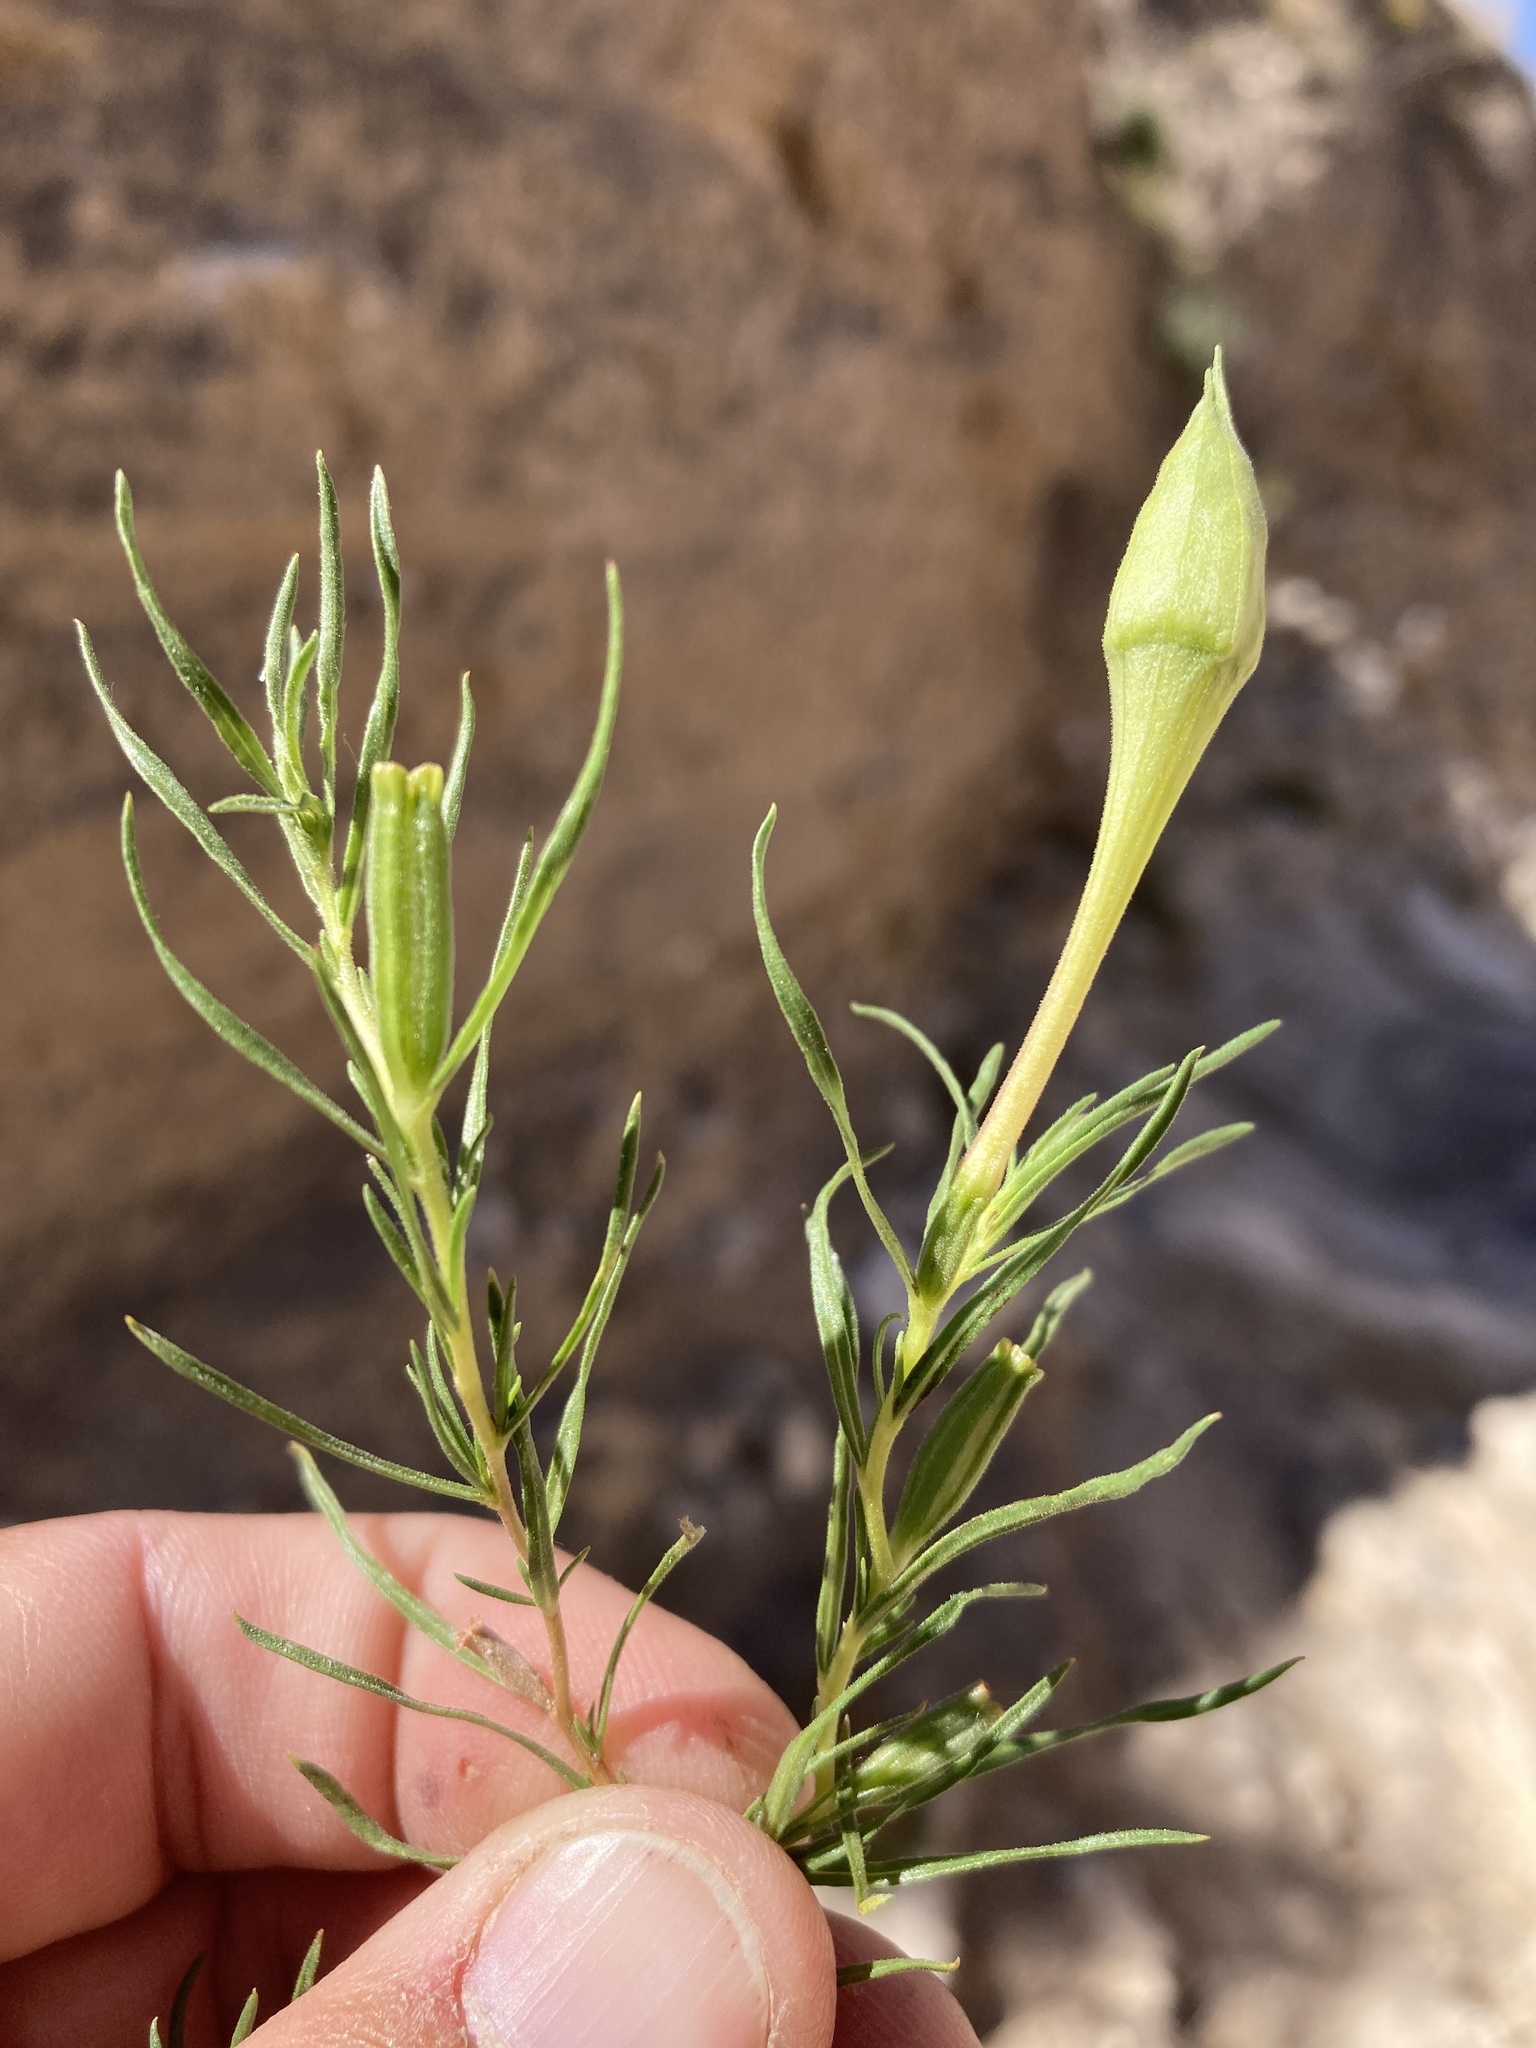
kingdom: Plantae
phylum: Tracheophyta
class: Magnoliopsida
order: Myrtales
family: Onagraceae
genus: Oenothera
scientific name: Oenothera hartwegii
